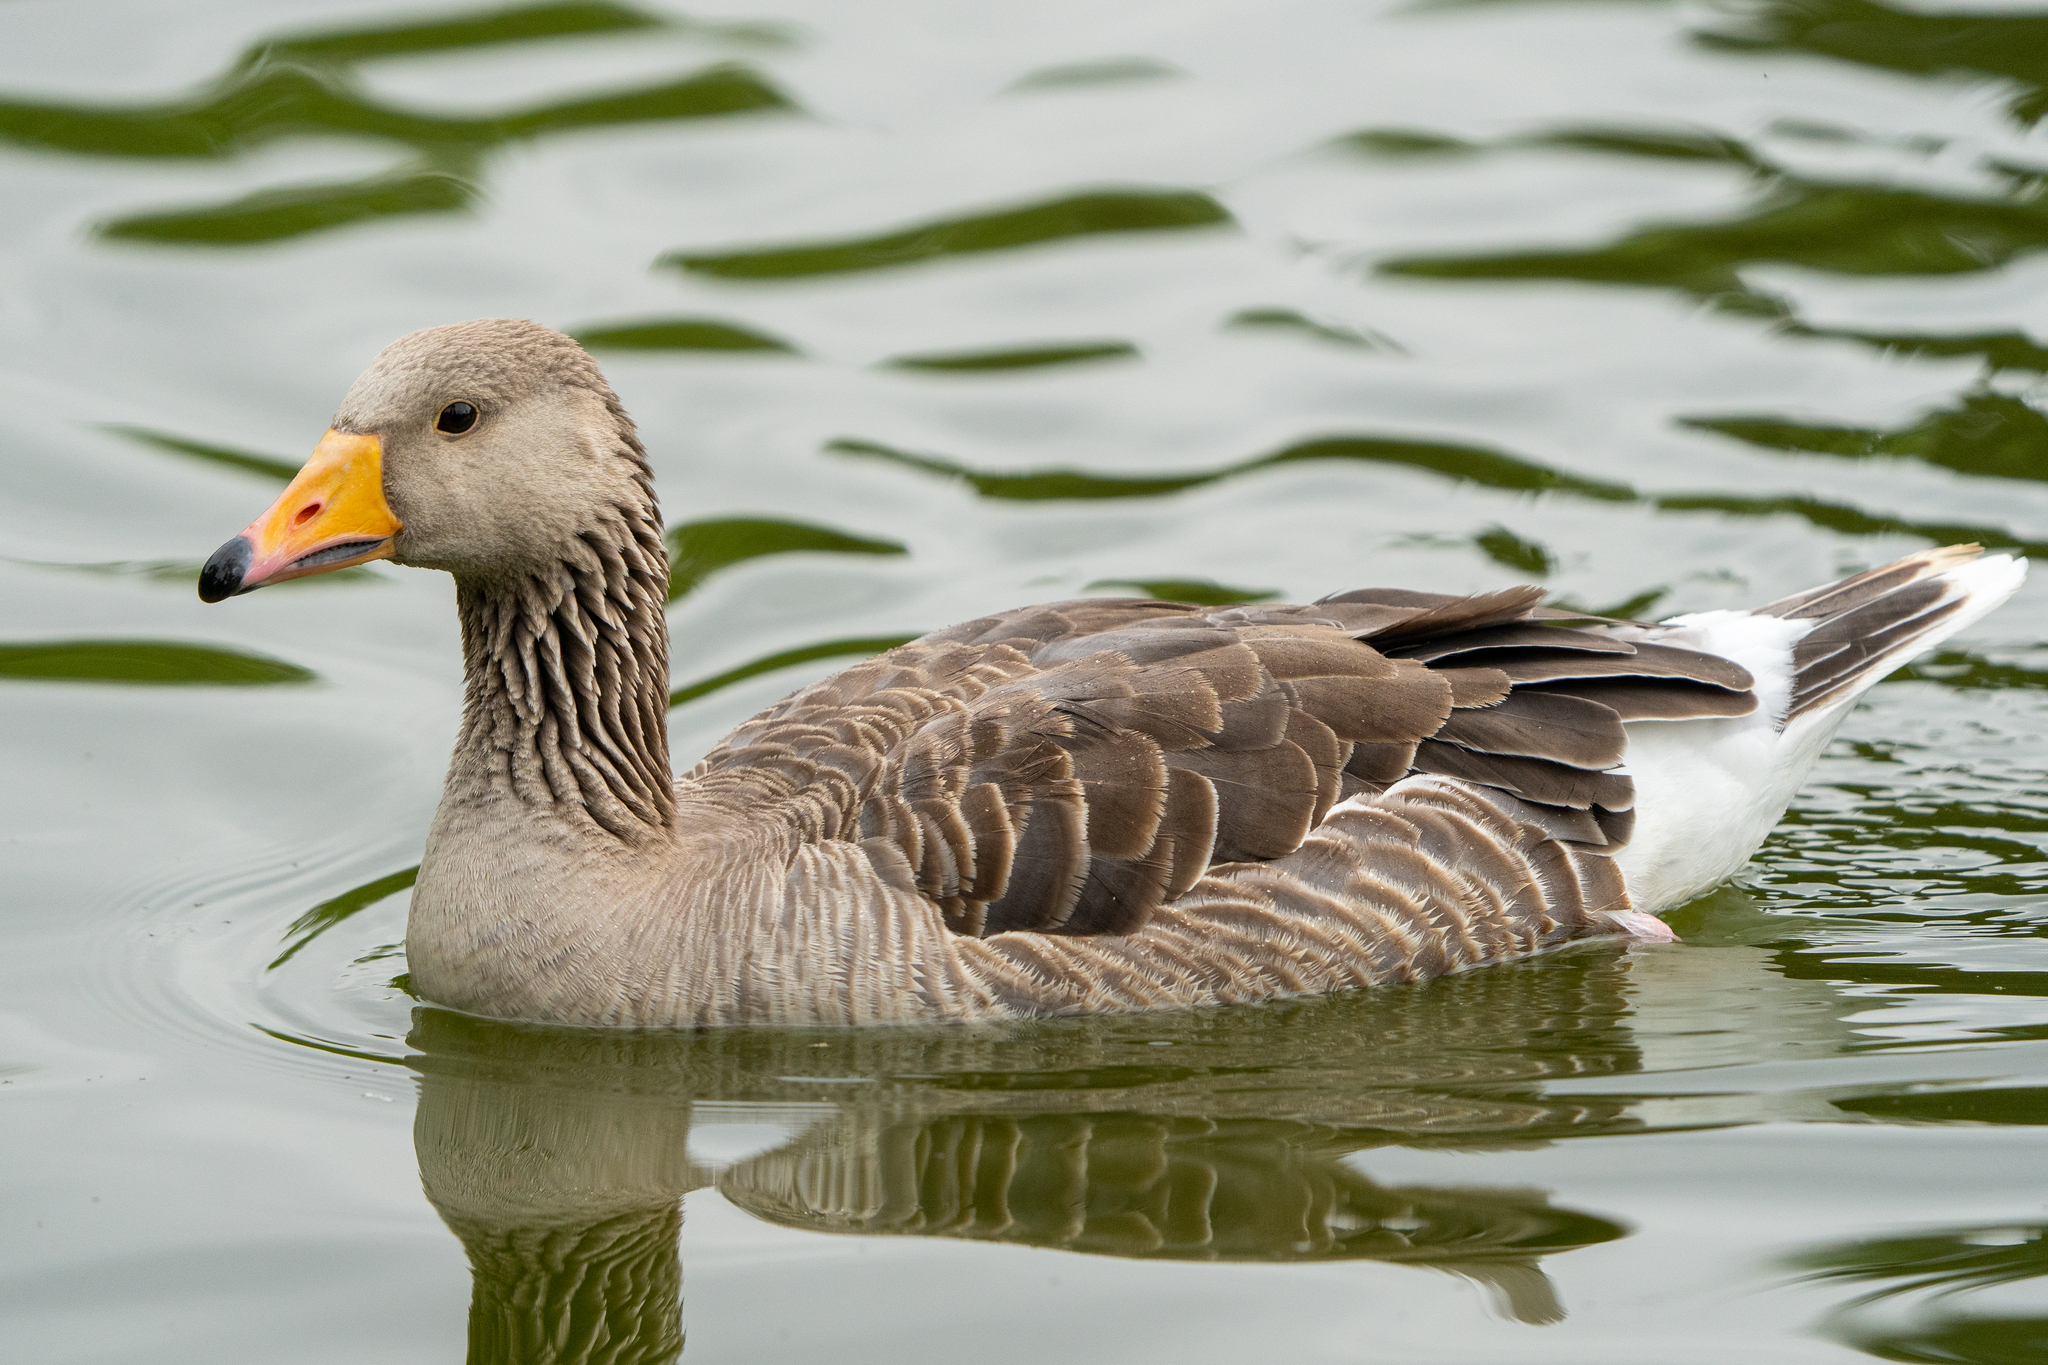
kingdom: Animalia
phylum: Chordata
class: Aves
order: Anseriformes
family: Anatidae
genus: Anser
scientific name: Anser anser
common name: Greylag goose
